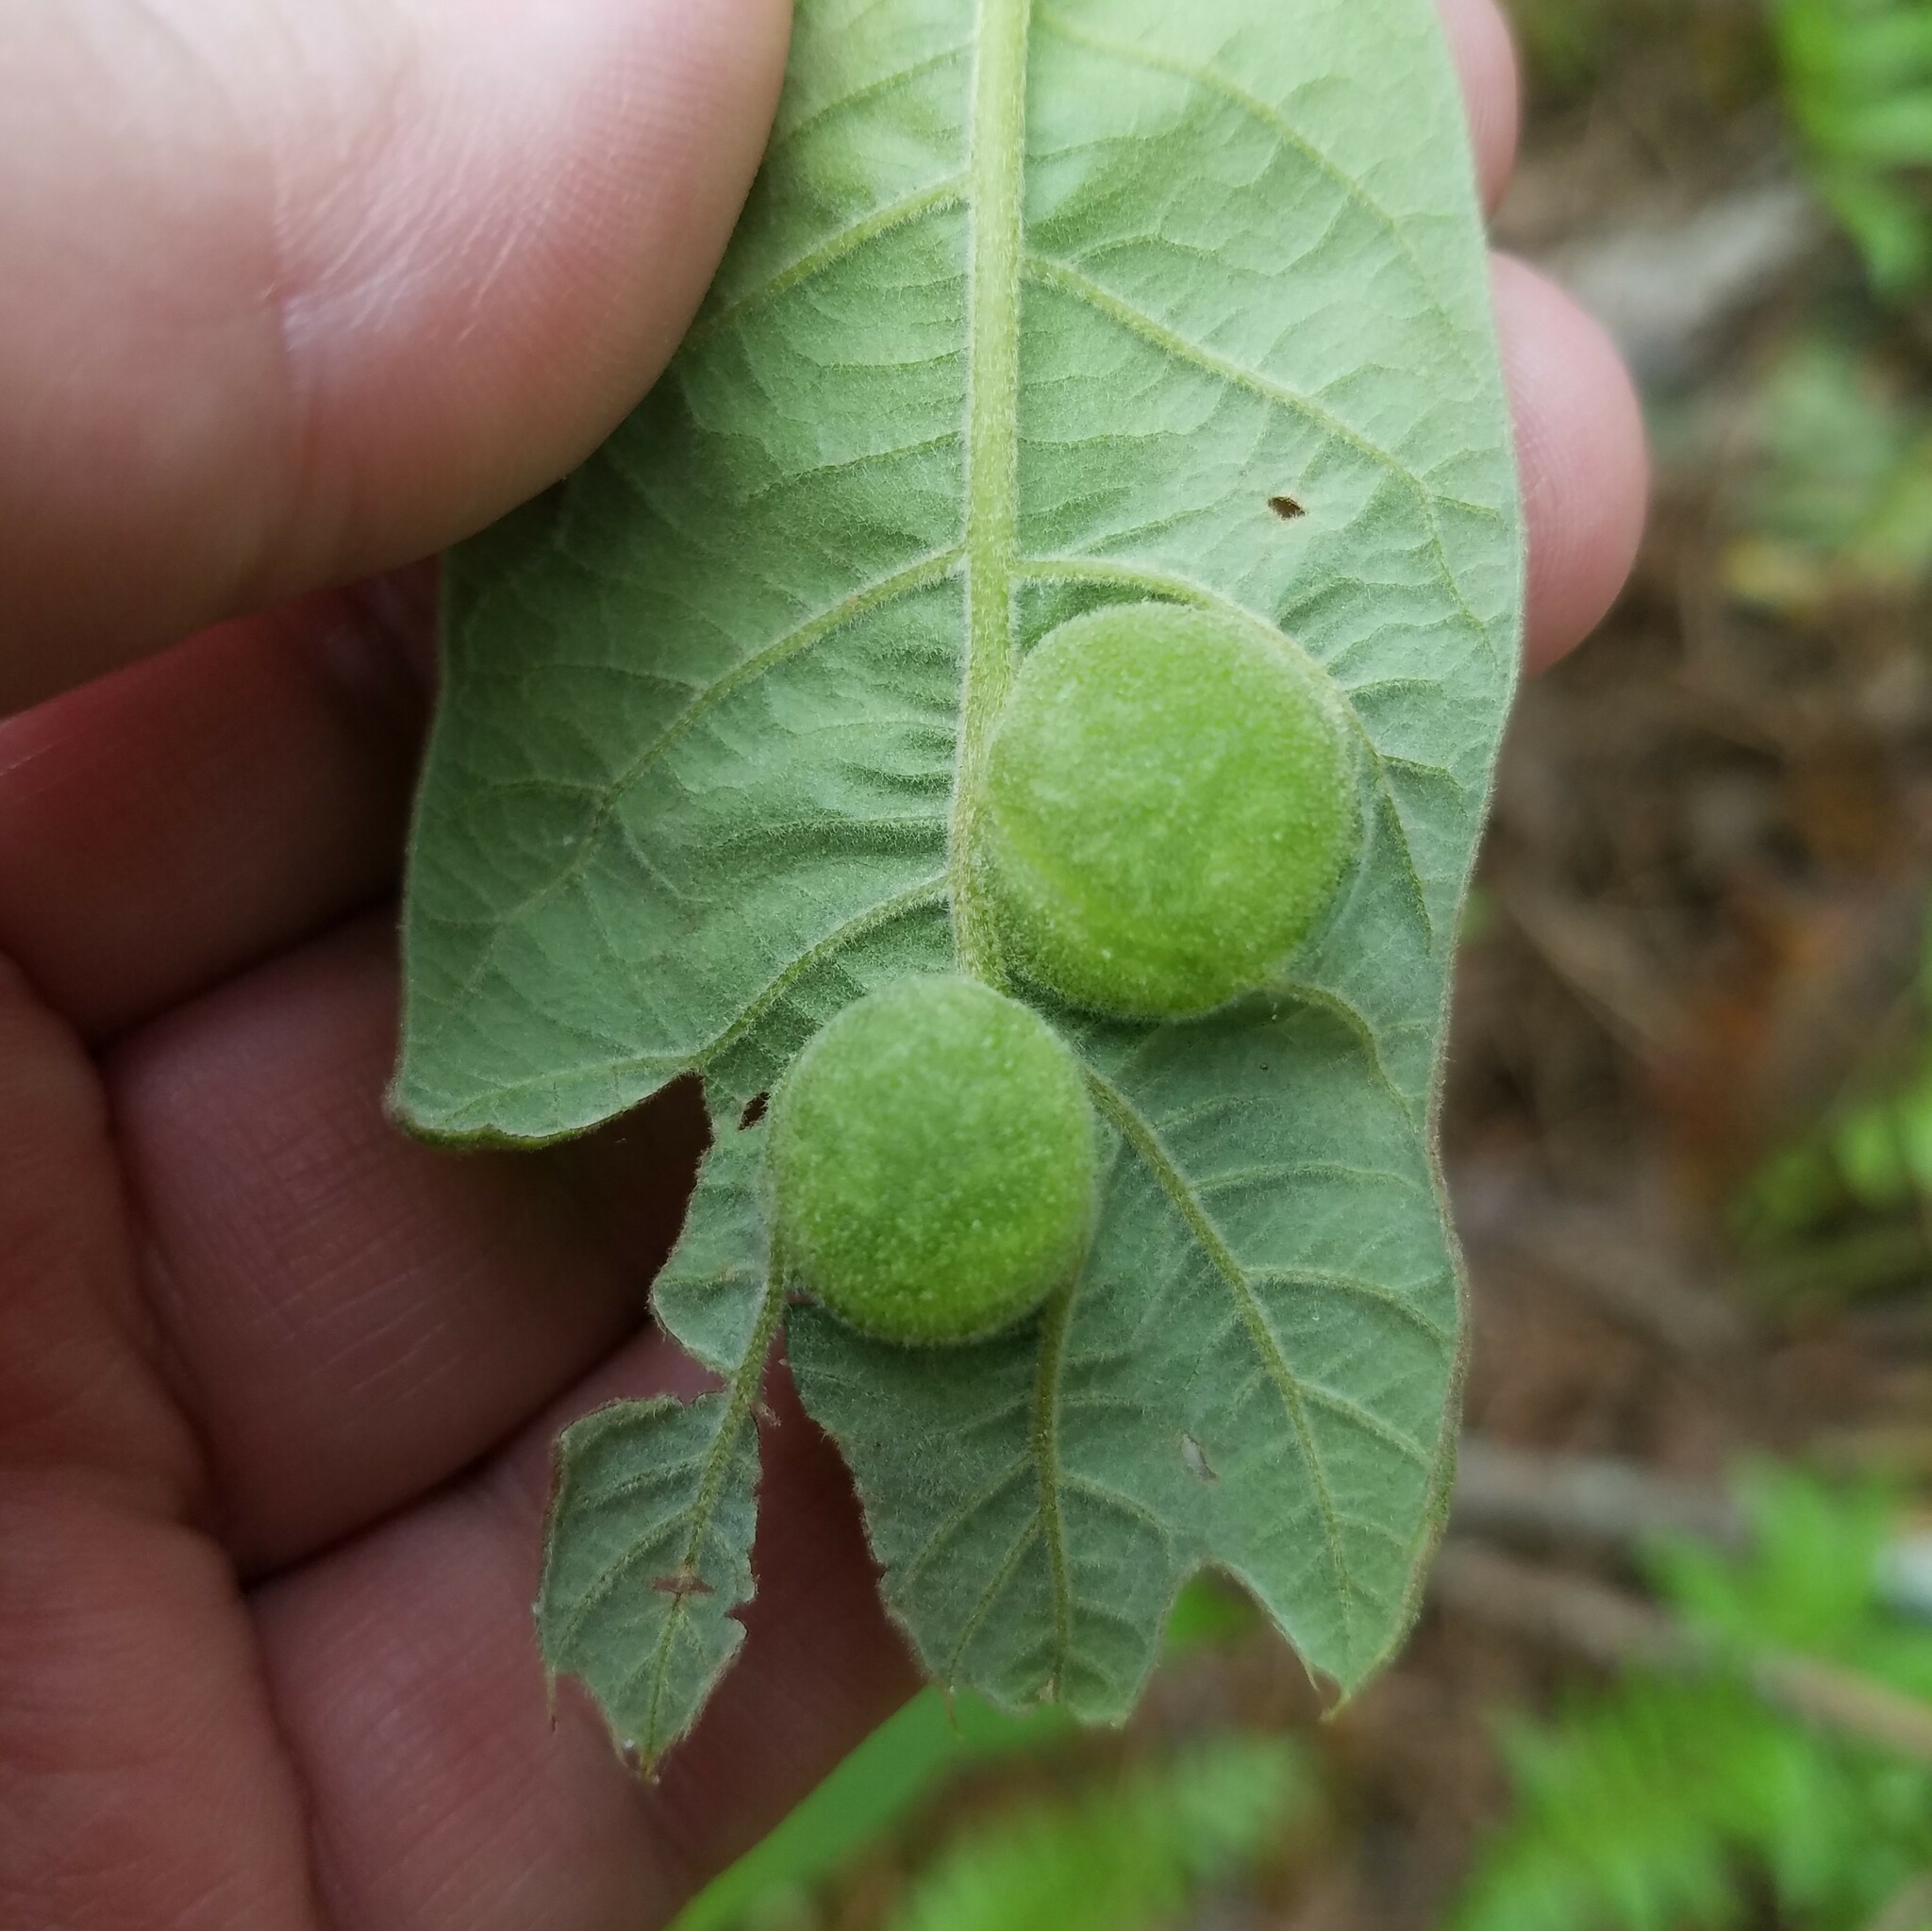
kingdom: Animalia
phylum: Arthropoda
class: Insecta
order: Hymenoptera
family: Cynipidae
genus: Dryocosmus
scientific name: Dryocosmus quercuspalustris
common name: Succulent oak gall wasp
